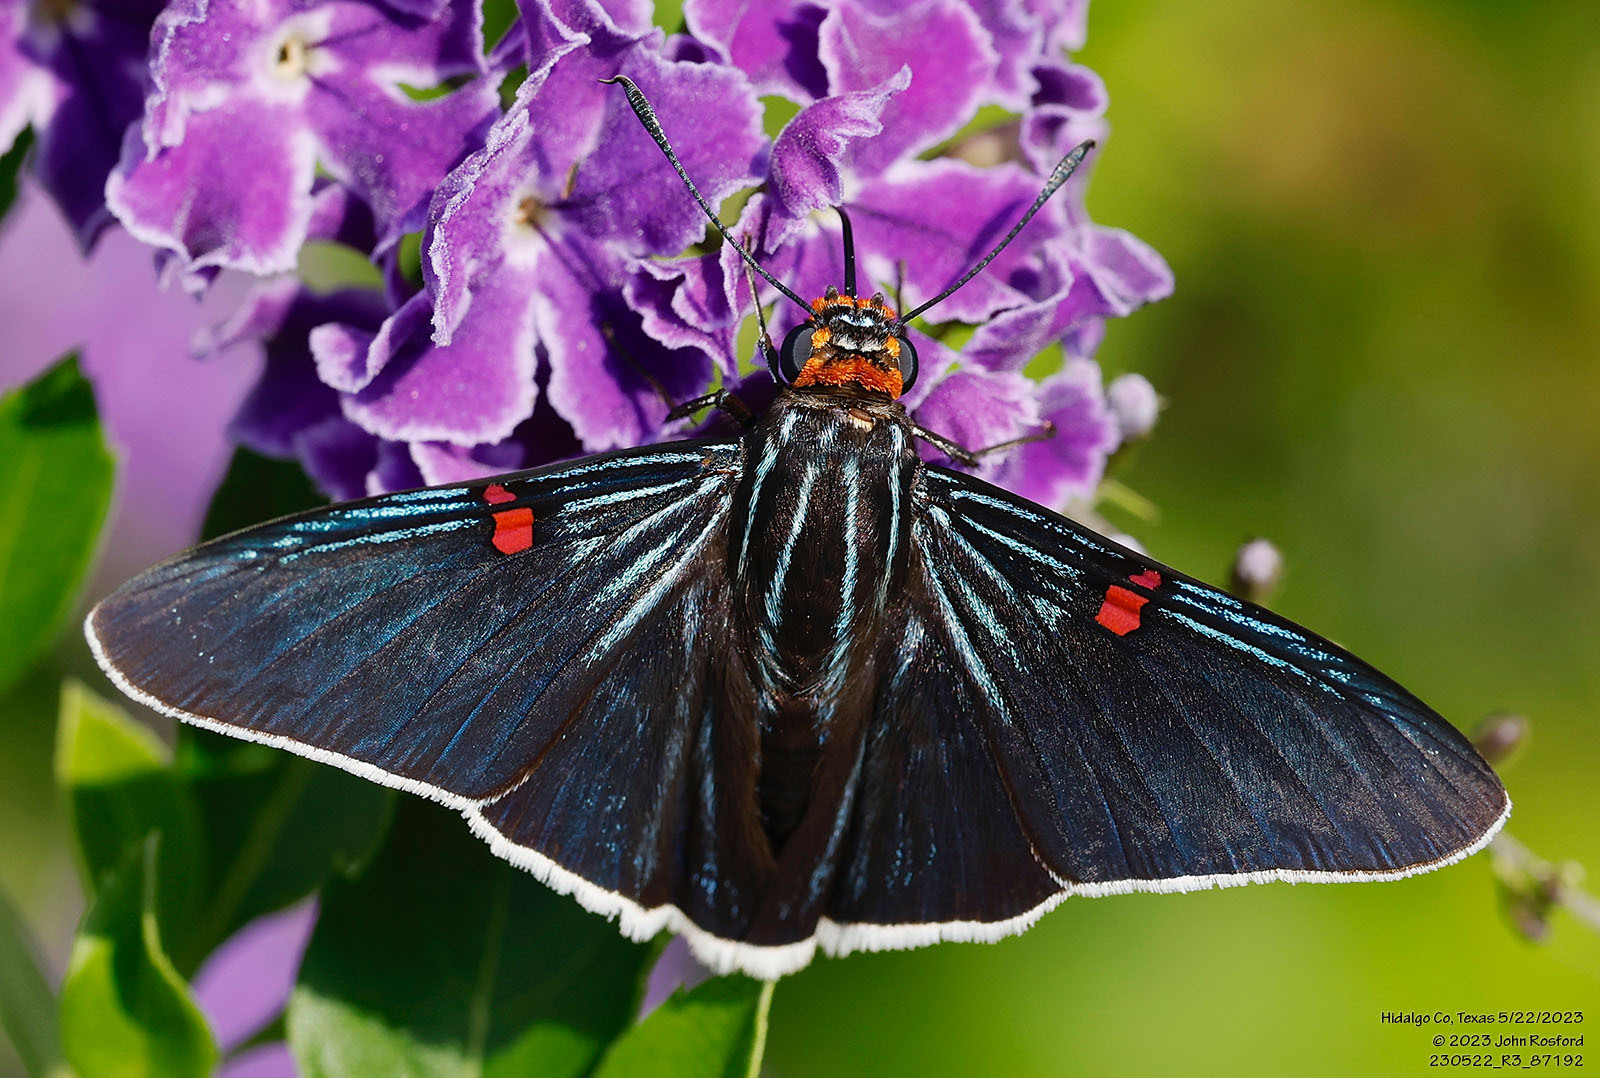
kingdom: Animalia
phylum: Arthropoda
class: Insecta
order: Lepidoptera
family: Hesperiidae
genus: Phocides
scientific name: Phocides lilea
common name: Guava skipper
